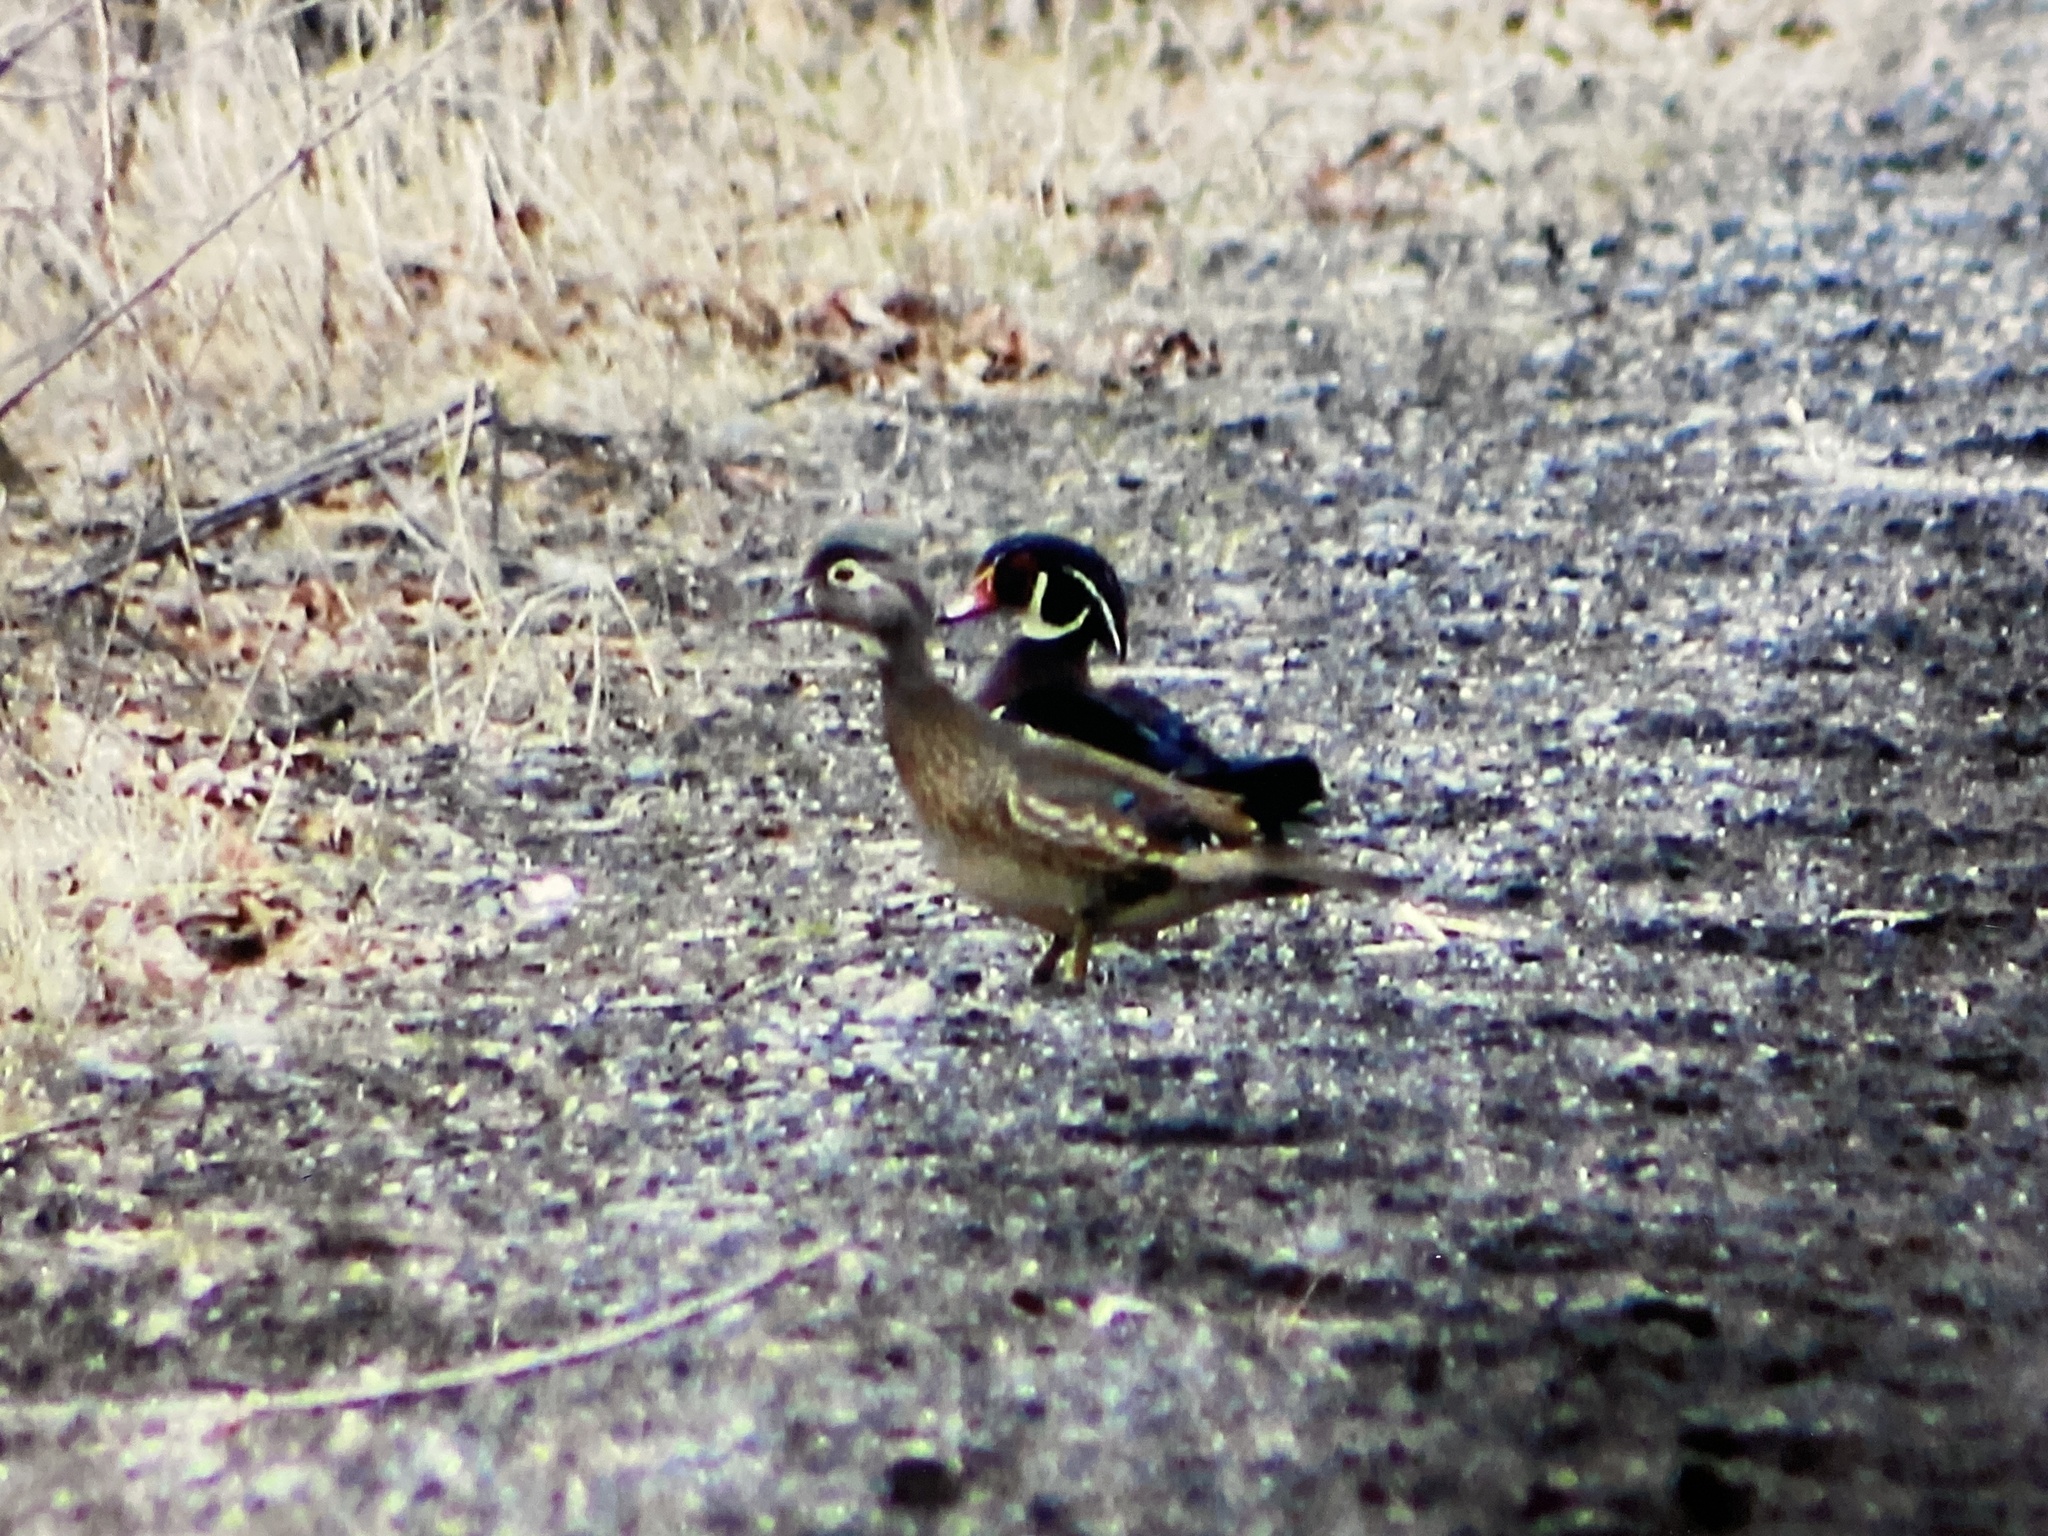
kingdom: Animalia
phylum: Chordata
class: Aves
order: Anseriformes
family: Anatidae
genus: Aix
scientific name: Aix sponsa
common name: Wood duck
